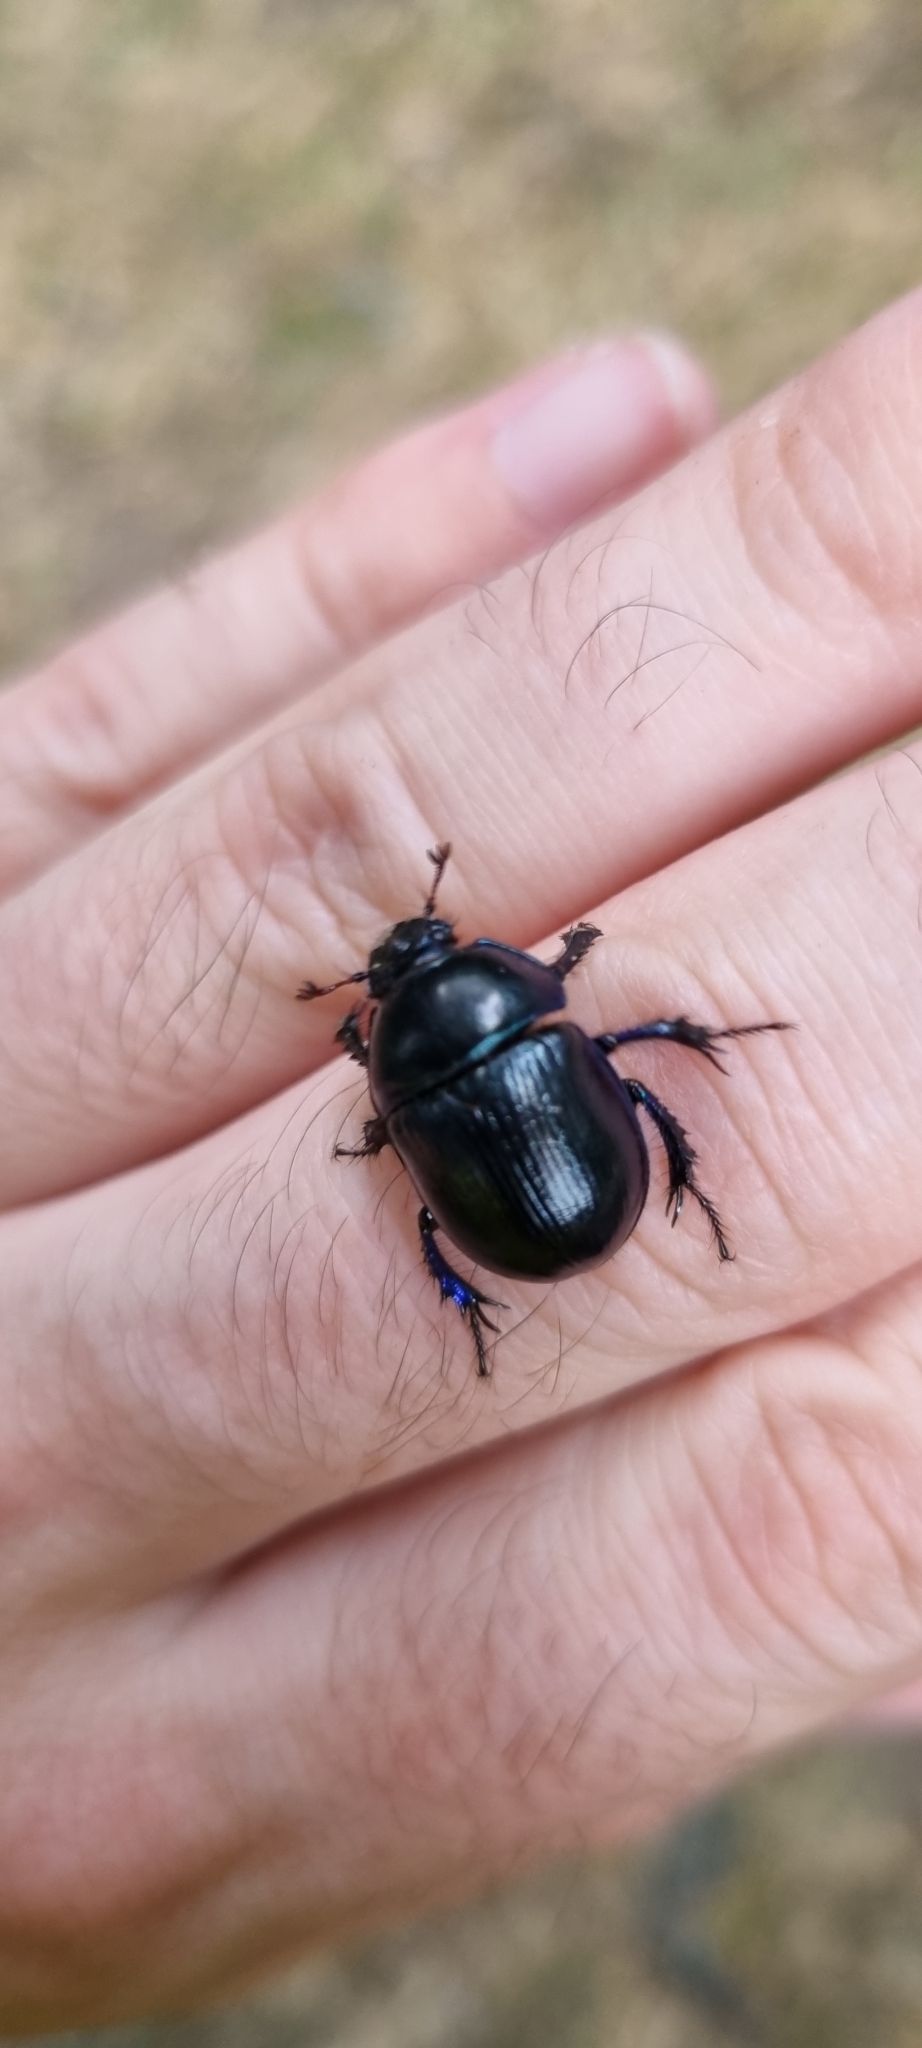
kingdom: Animalia
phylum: Arthropoda
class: Insecta
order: Coleoptera
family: Geotrupidae
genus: Anoplotrupes
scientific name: Anoplotrupes stercorosus
